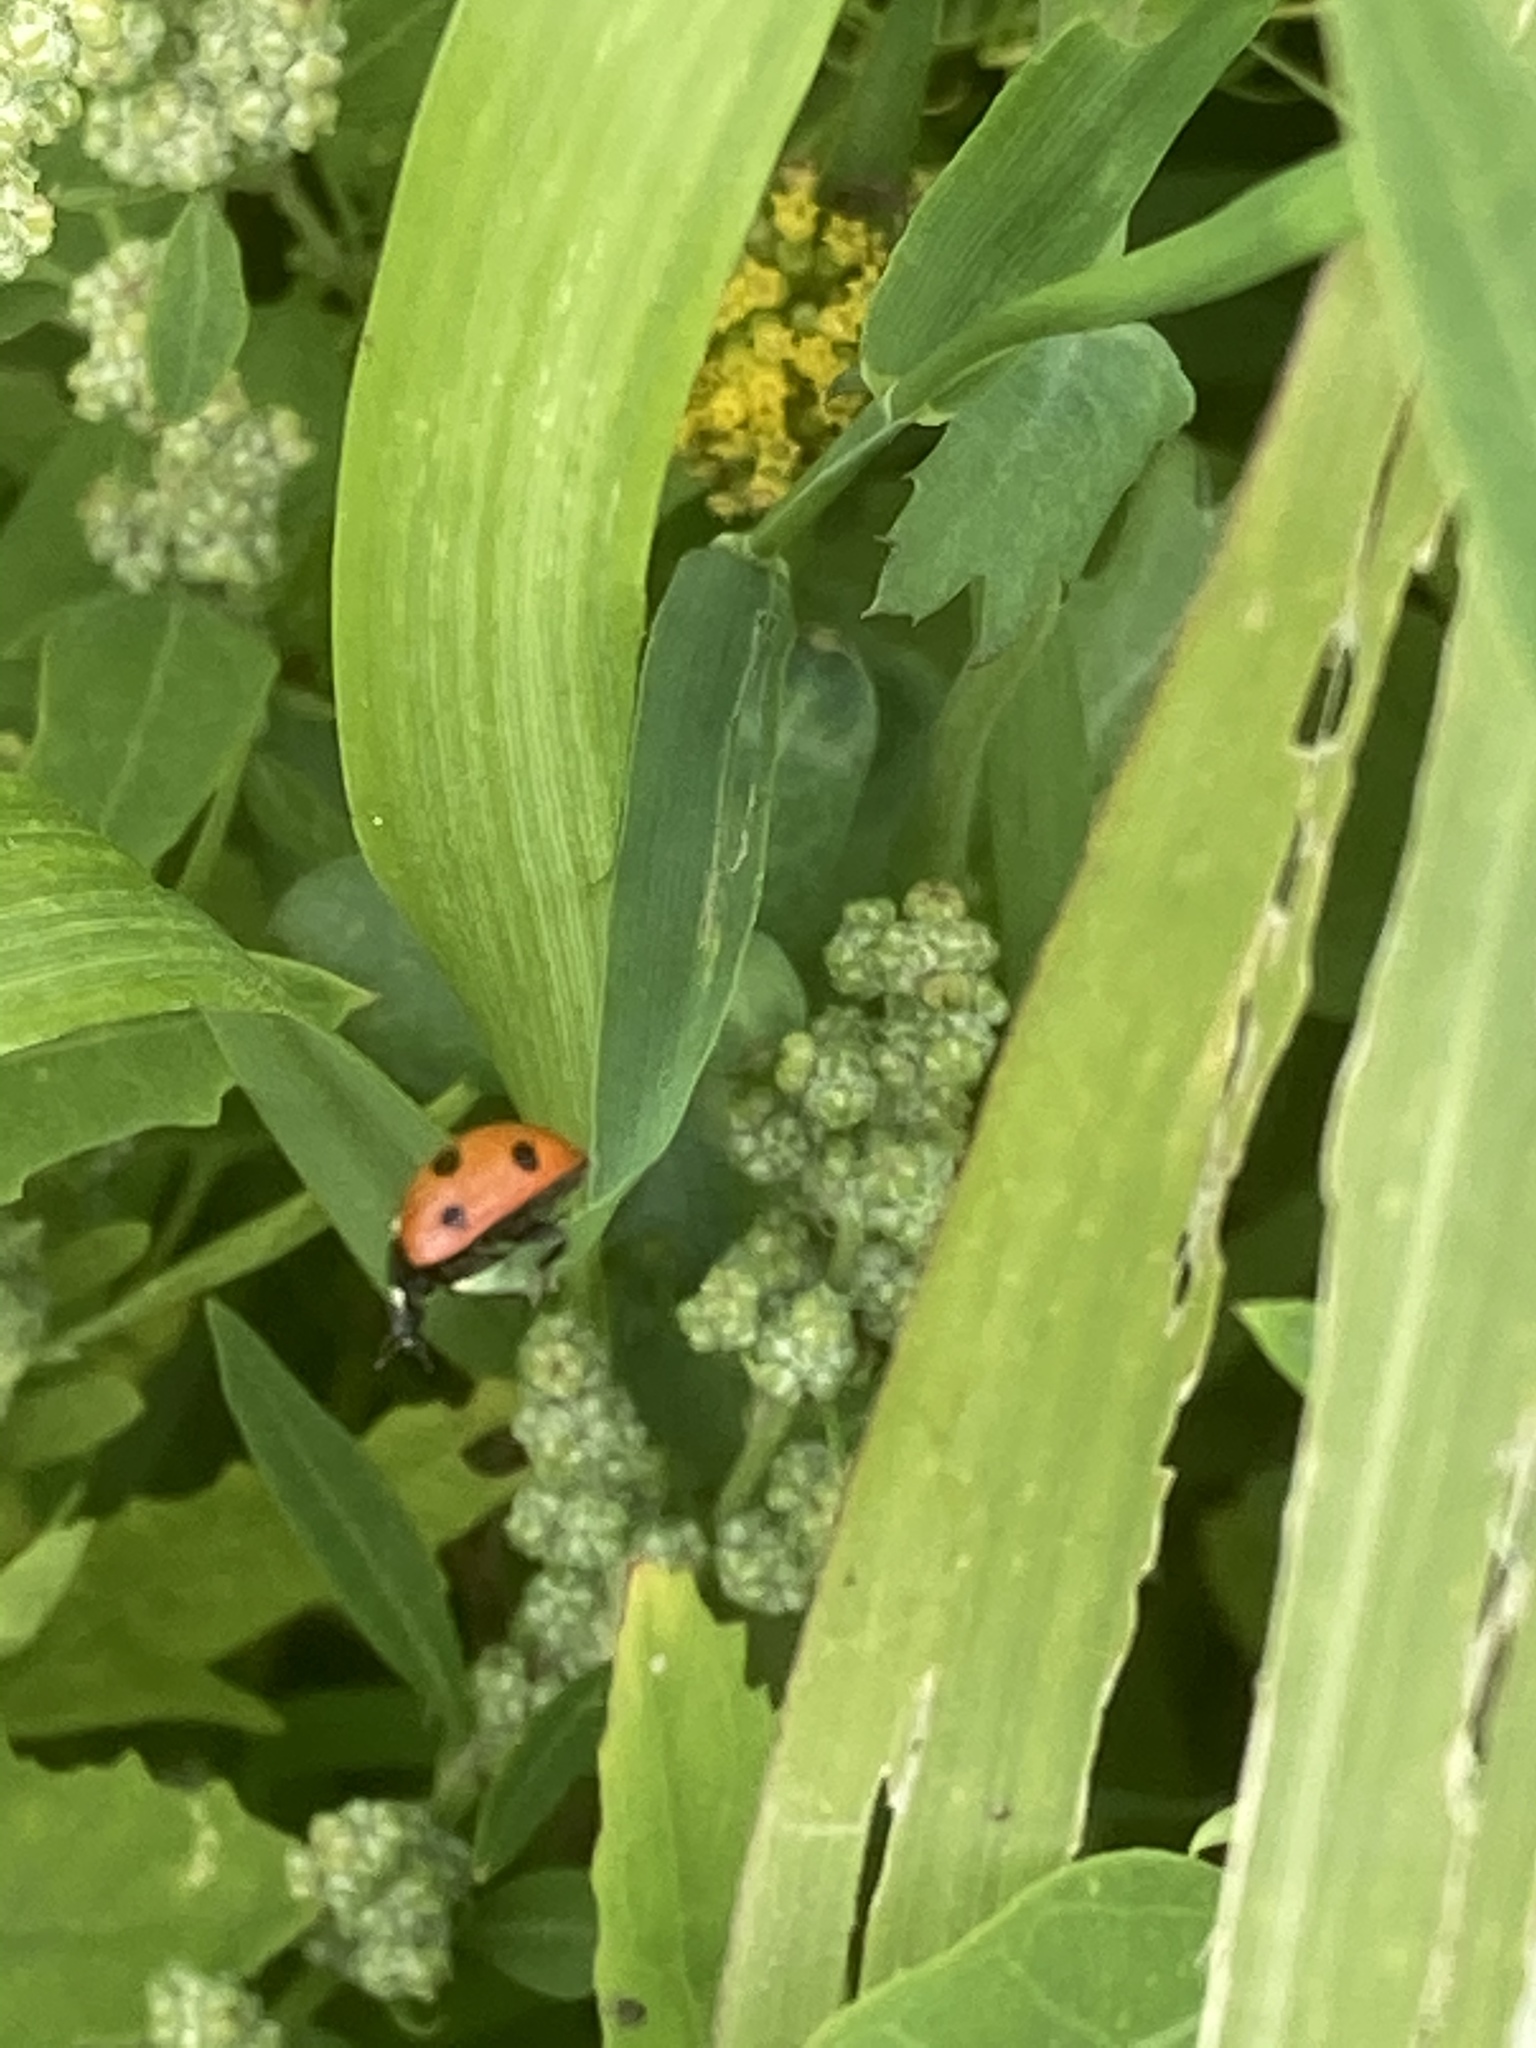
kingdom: Animalia
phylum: Arthropoda
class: Insecta
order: Coleoptera
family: Coccinellidae
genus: Coccinella
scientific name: Coccinella septempunctata
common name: Sevenspotted lady beetle
